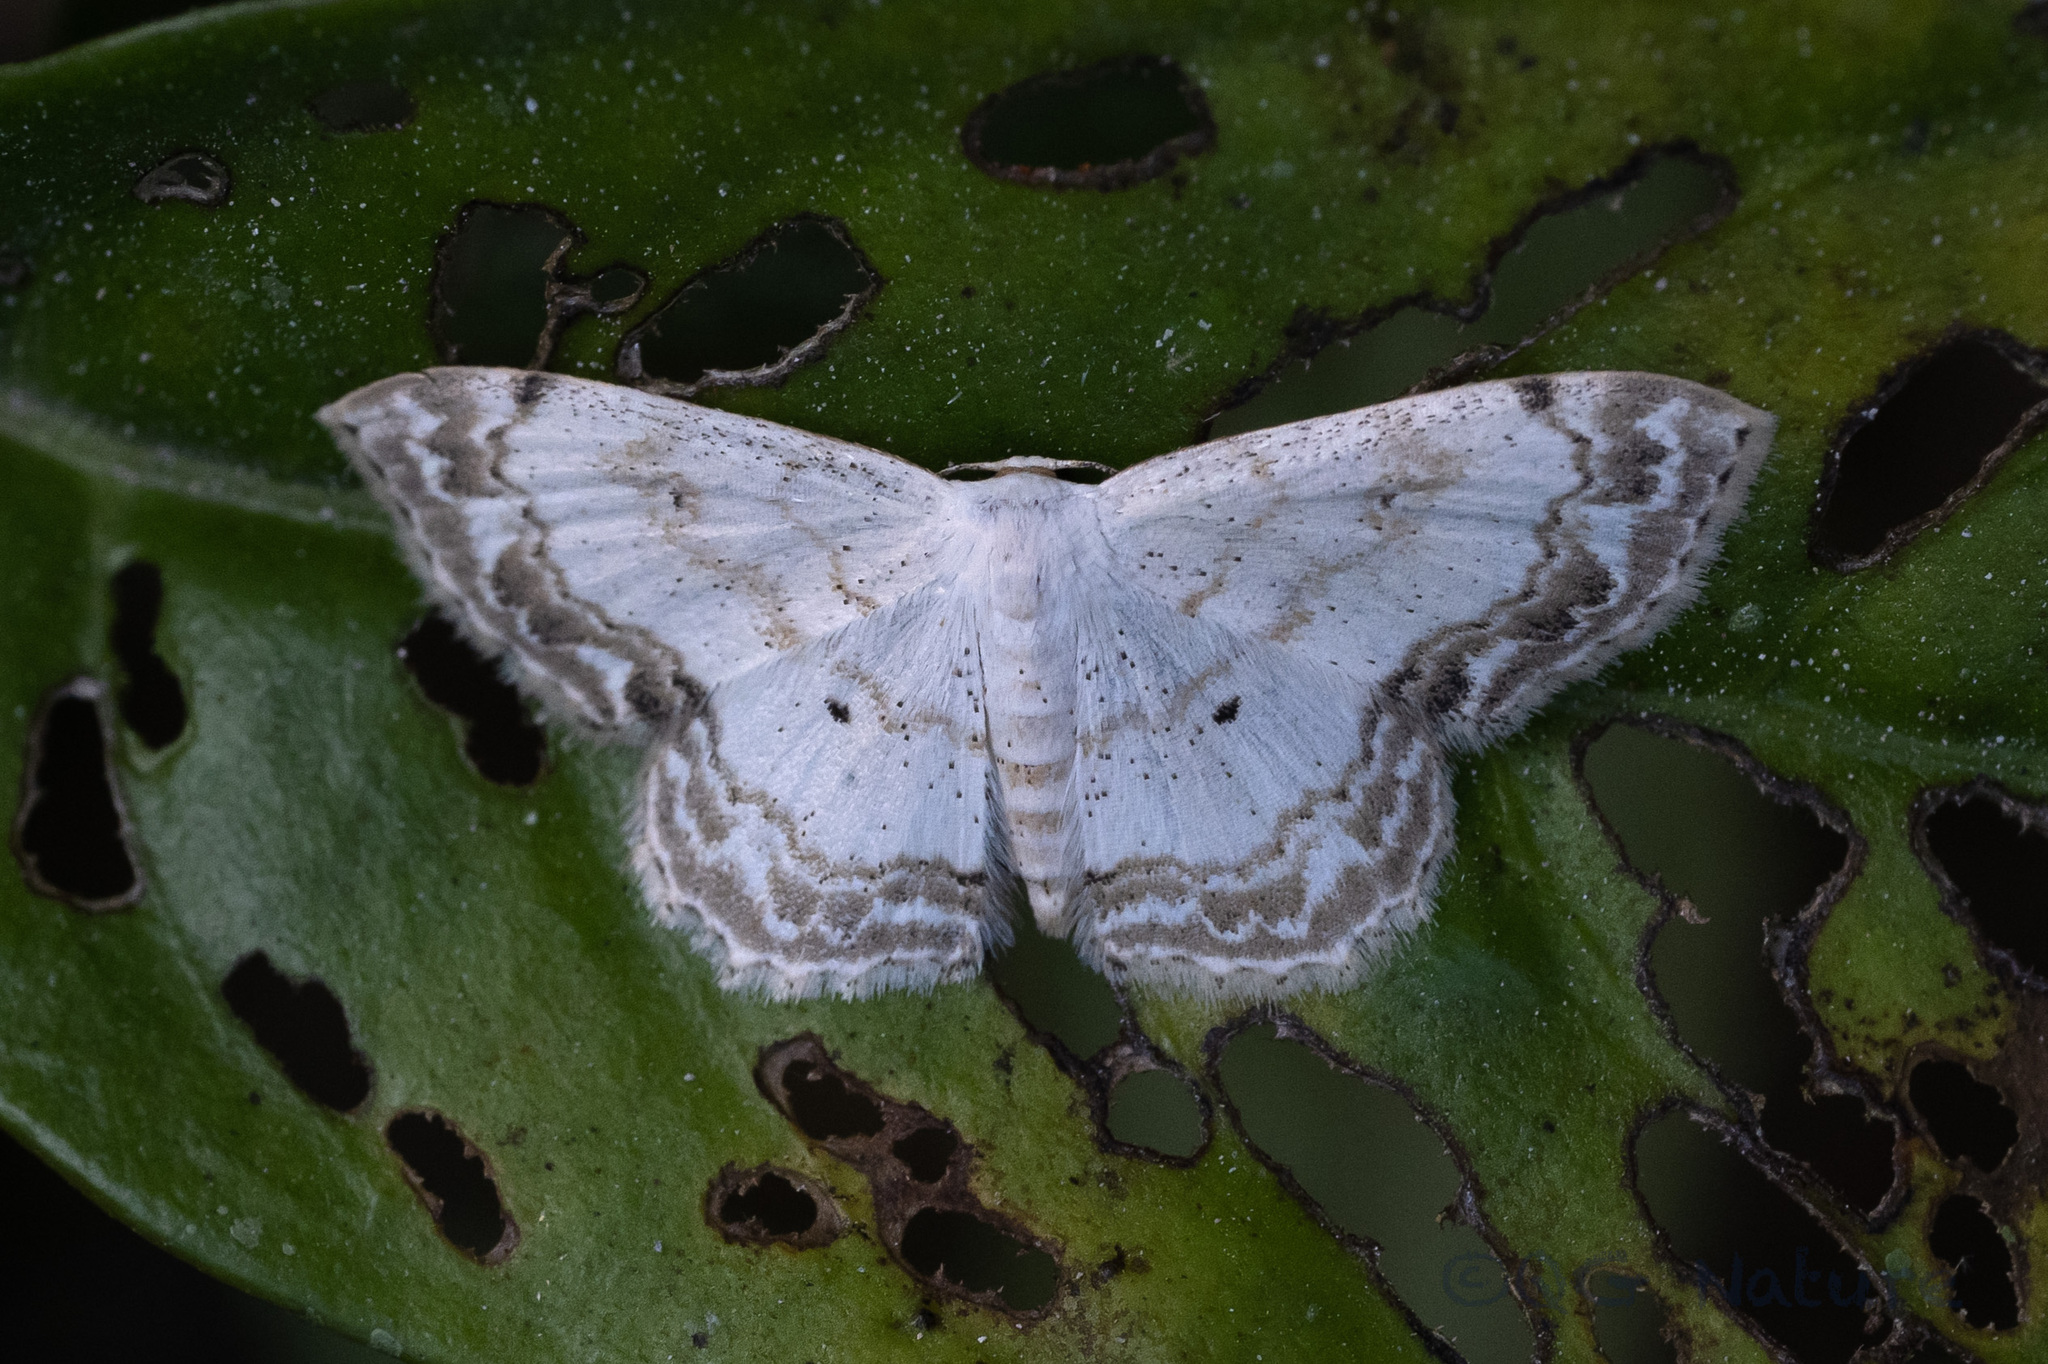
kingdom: Animalia
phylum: Arthropoda
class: Insecta
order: Lepidoptera
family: Geometridae
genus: Scopula
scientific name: Scopula propinquaria
